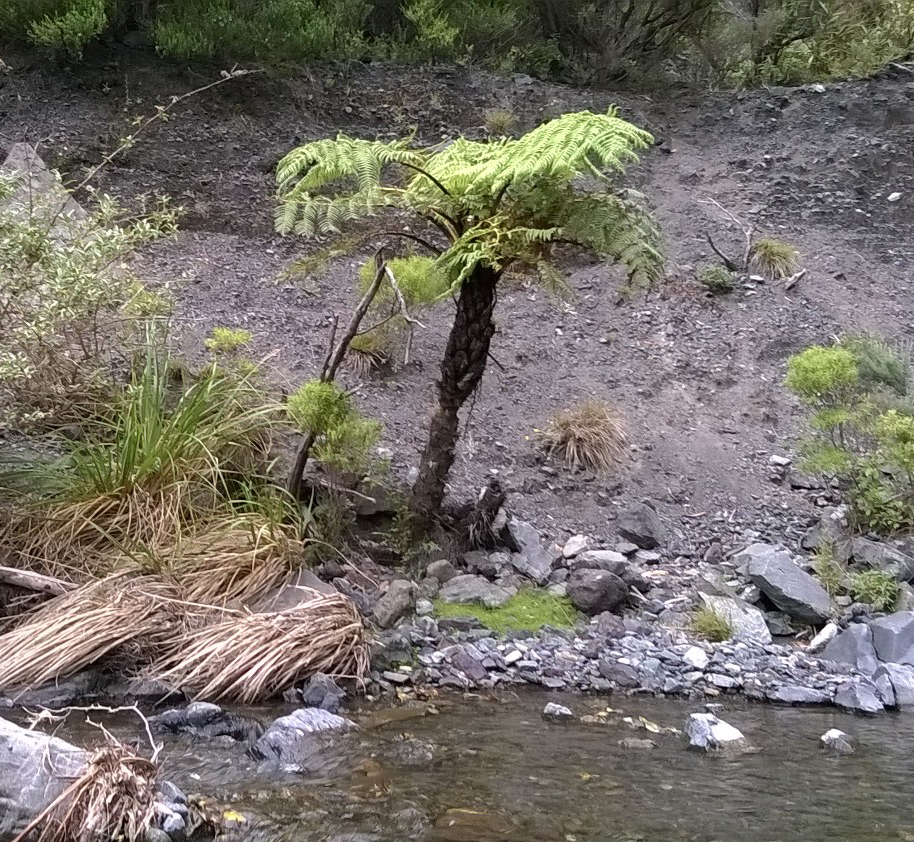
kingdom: Plantae
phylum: Tracheophyta
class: Polypodiopsida
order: Cyatheales
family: Cyatheaceae
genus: Sphaeropteris
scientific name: Sphaeropteris medullaris
